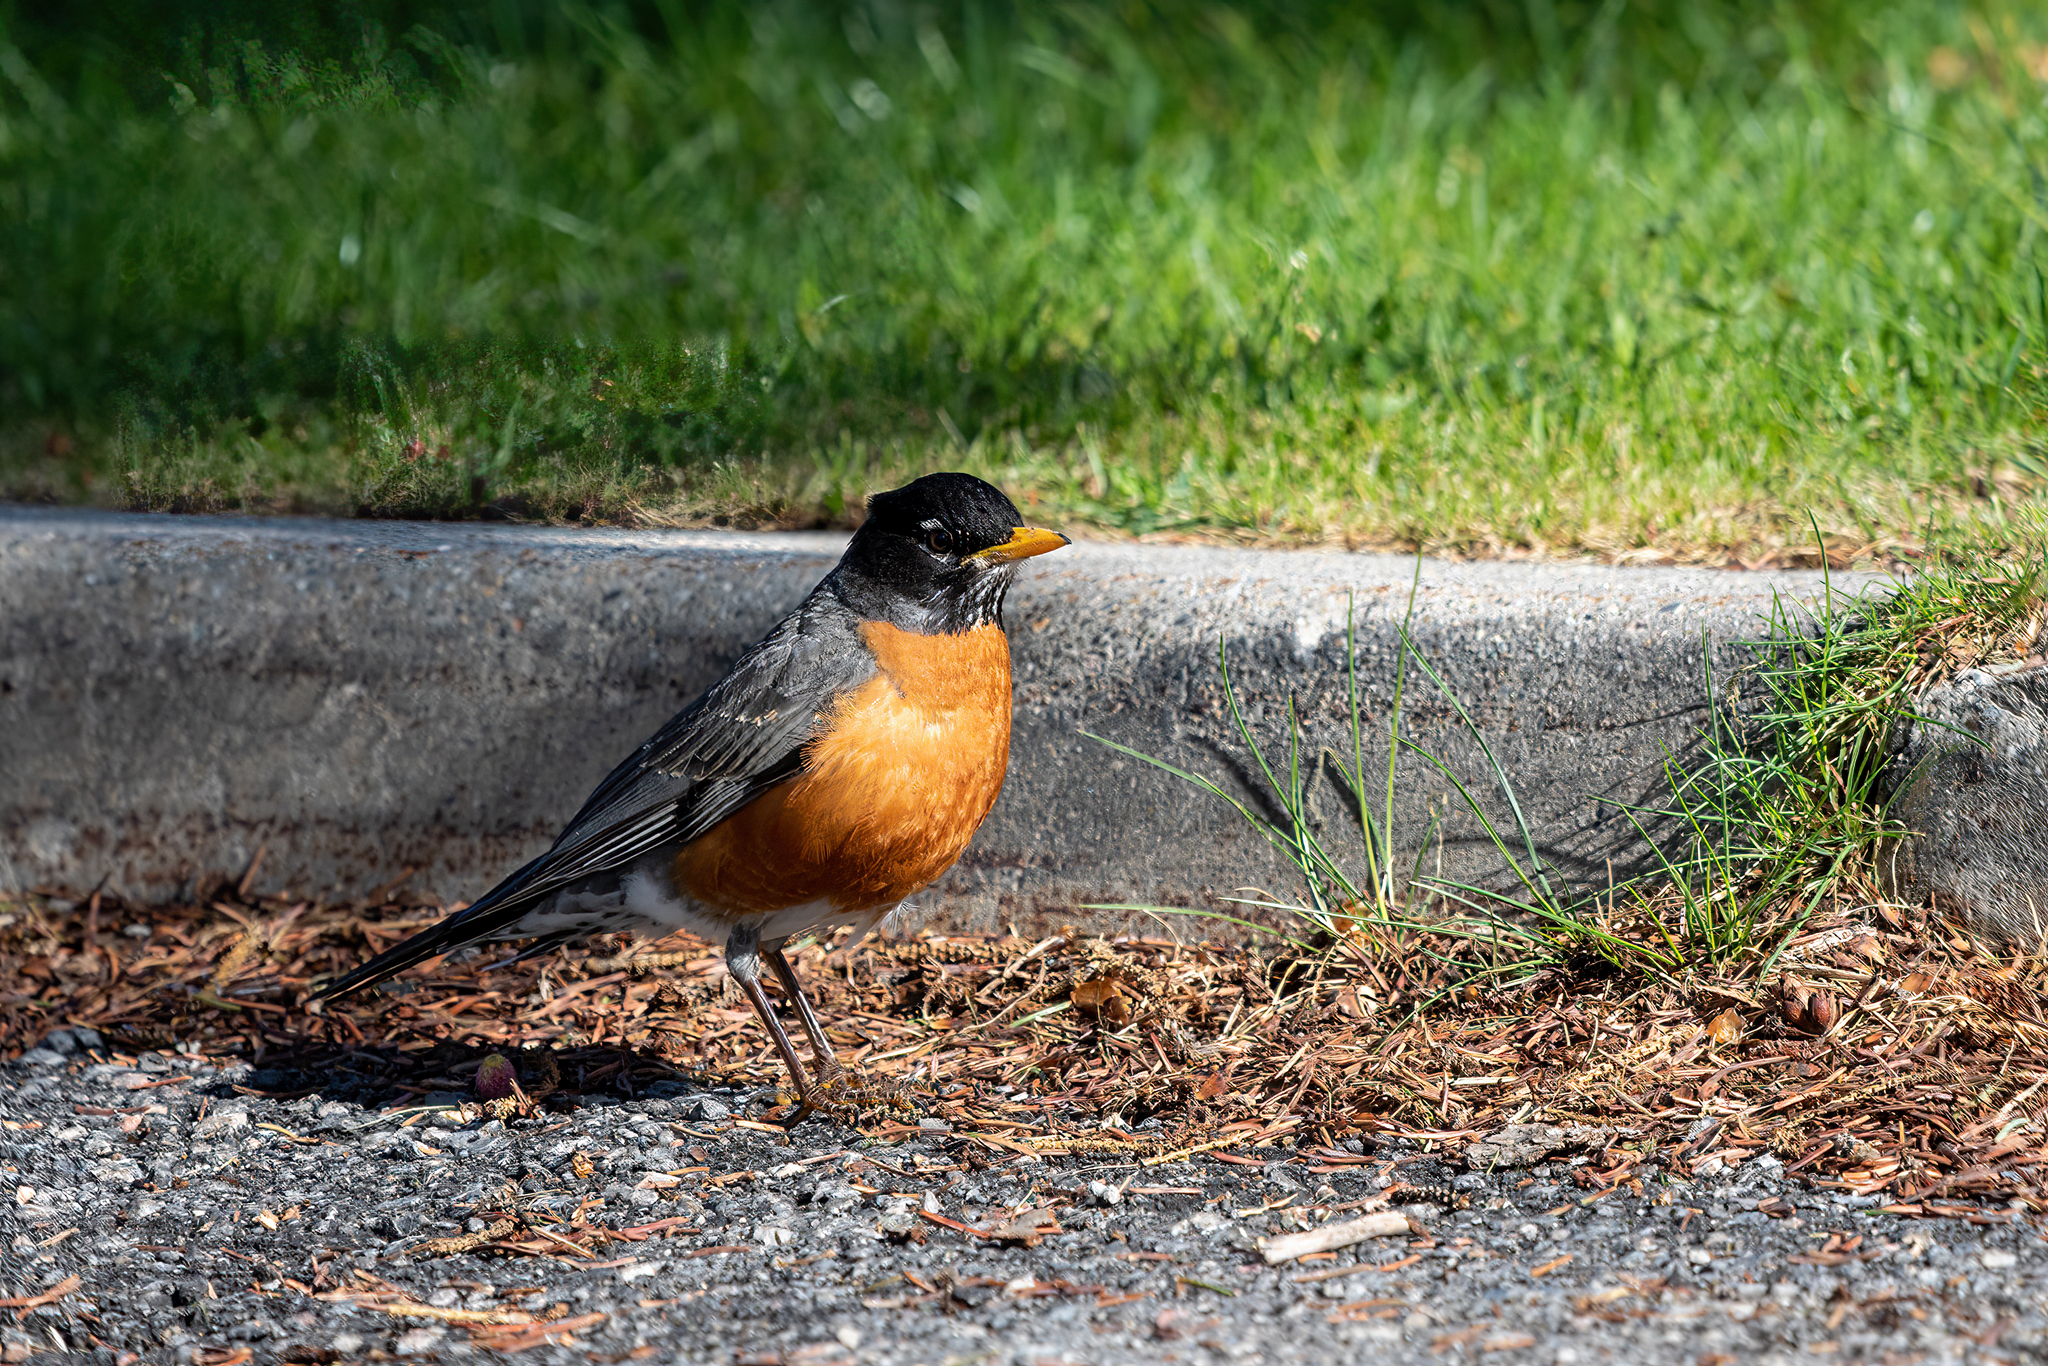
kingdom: Animalia
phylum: Chordata
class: Aves
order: Passeriformes
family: Turdidae
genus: Turdus
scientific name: Turdus migratorius
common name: American robin
